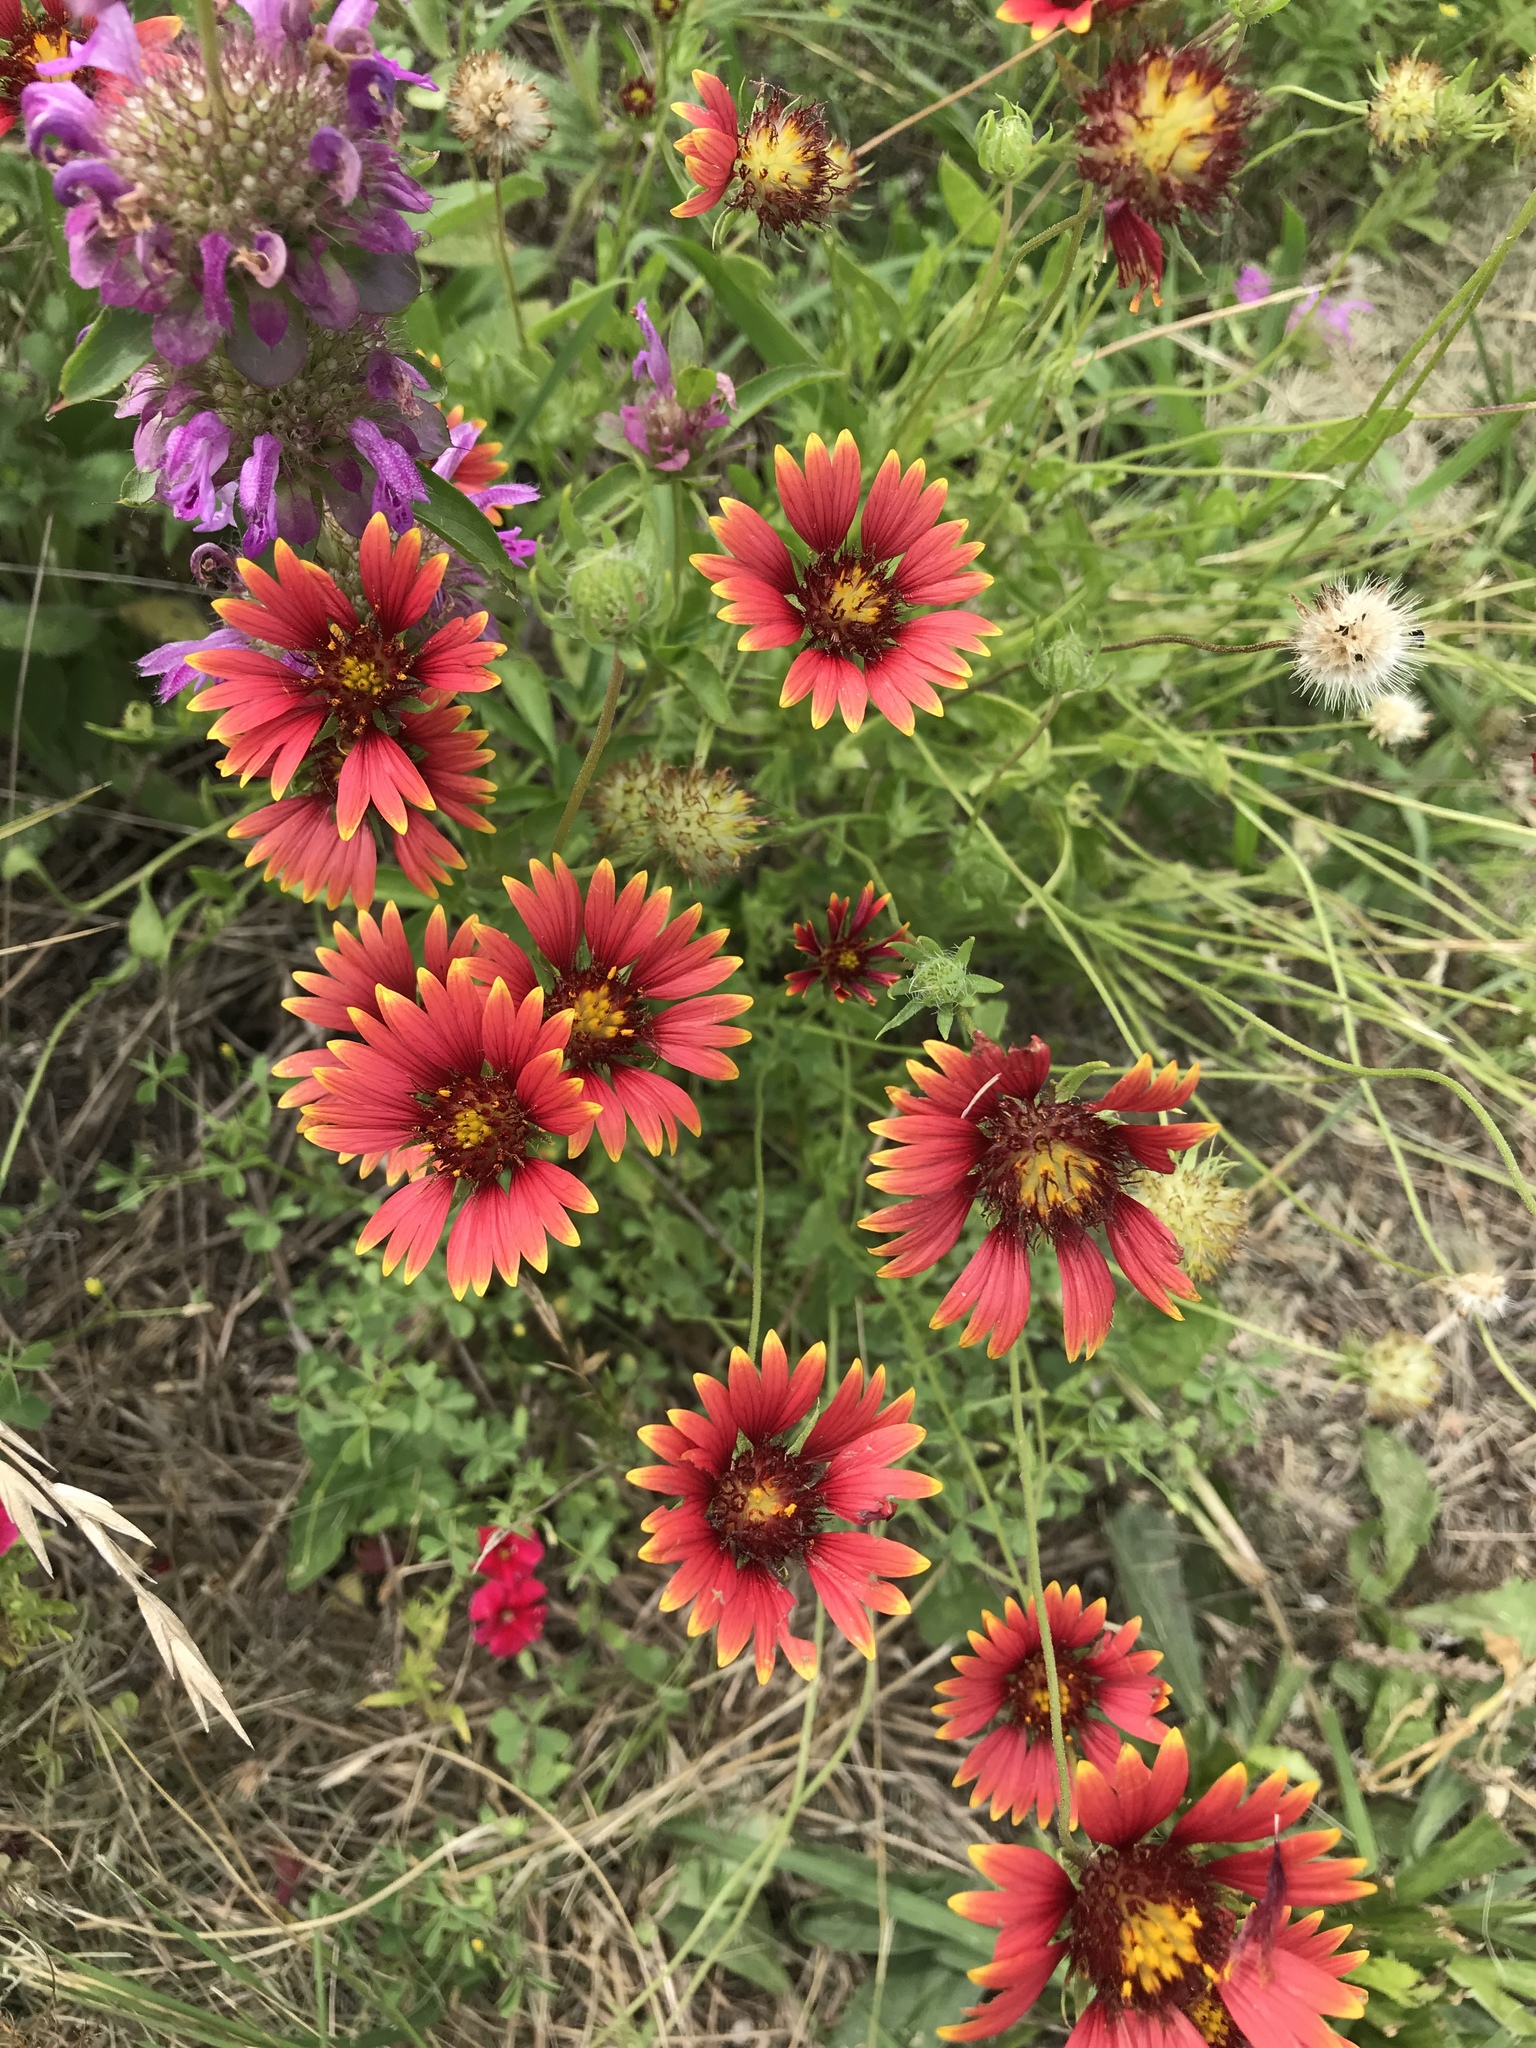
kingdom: Plantae
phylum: Tracheophyta
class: Magnoliopsida
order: Asterales
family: Asteraceae
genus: Gaillardia
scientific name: Gaillardia pulchella
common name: Firewheel
